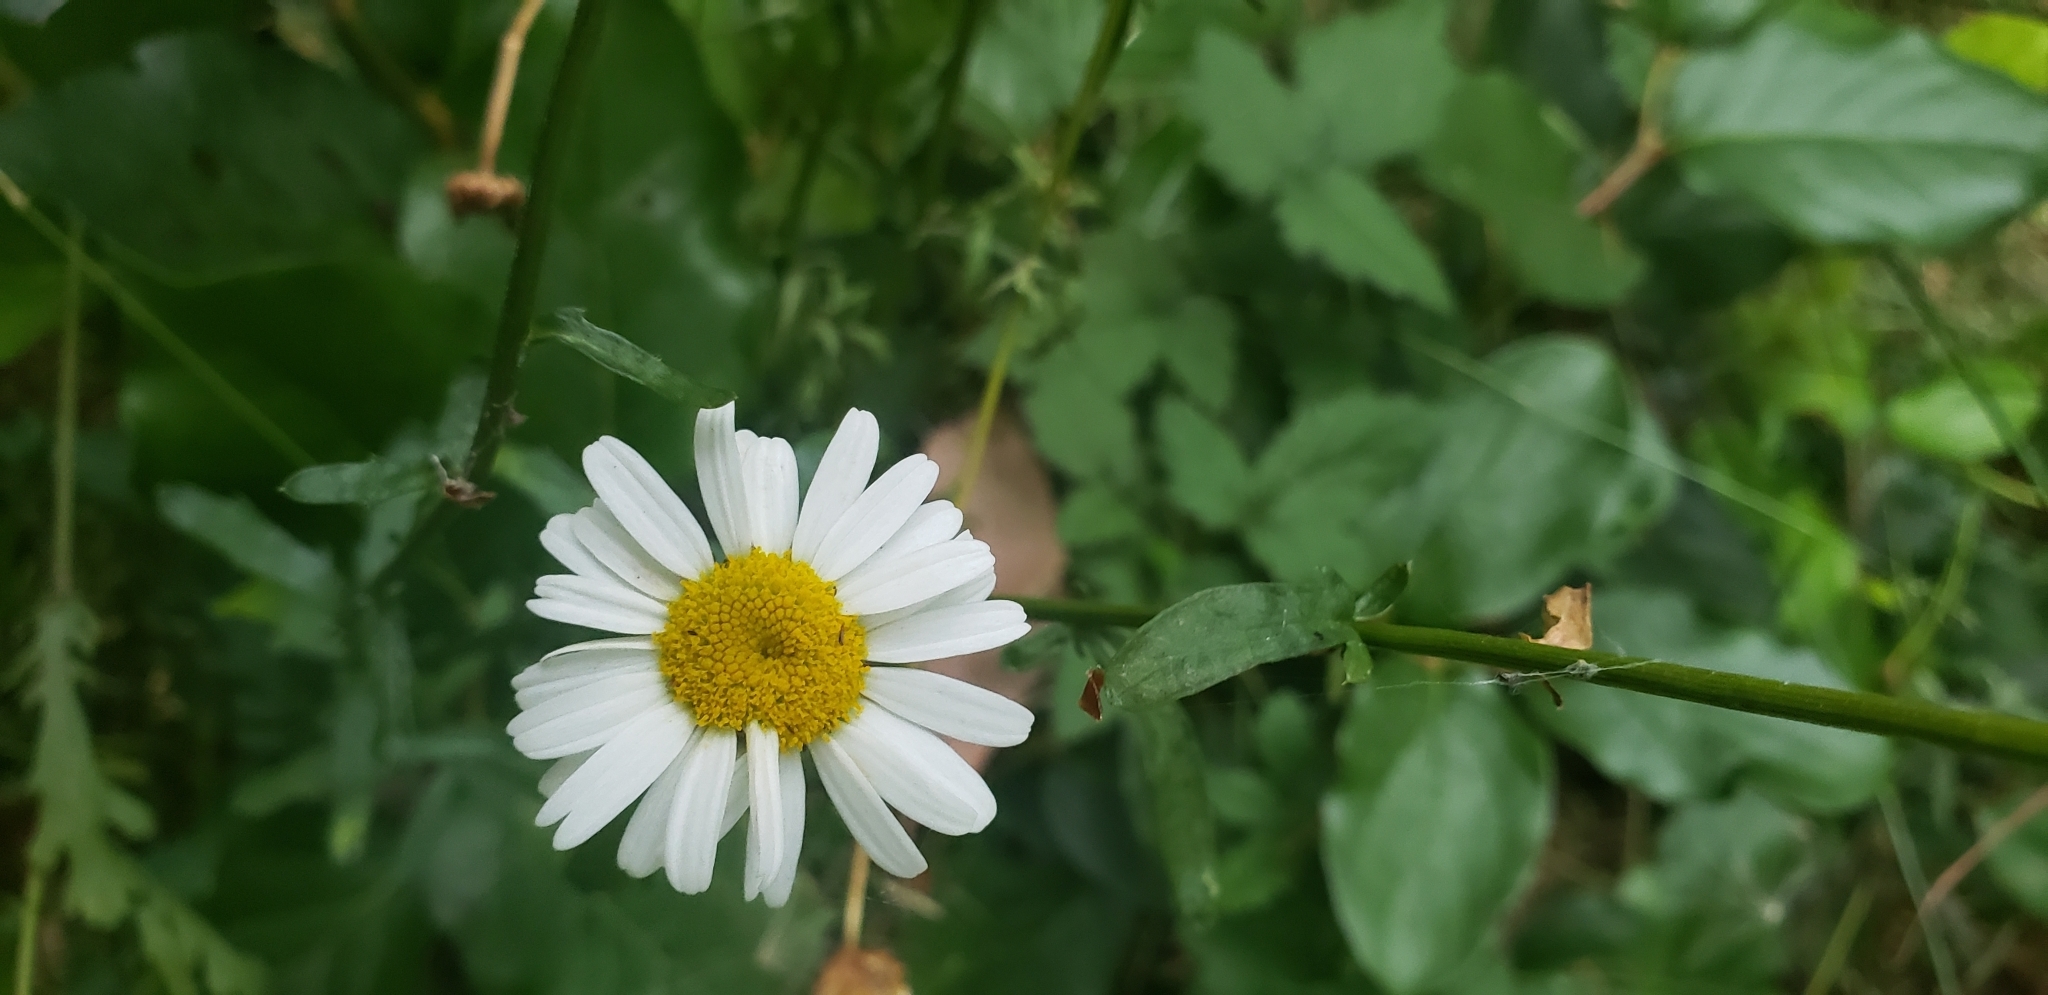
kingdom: Plantae
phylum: Tracheophyta
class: Magnoliopsida
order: Asterales
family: Asteraceae
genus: Leucanthemum
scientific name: Leucanthemum vulgare
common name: Oxeye daisy
